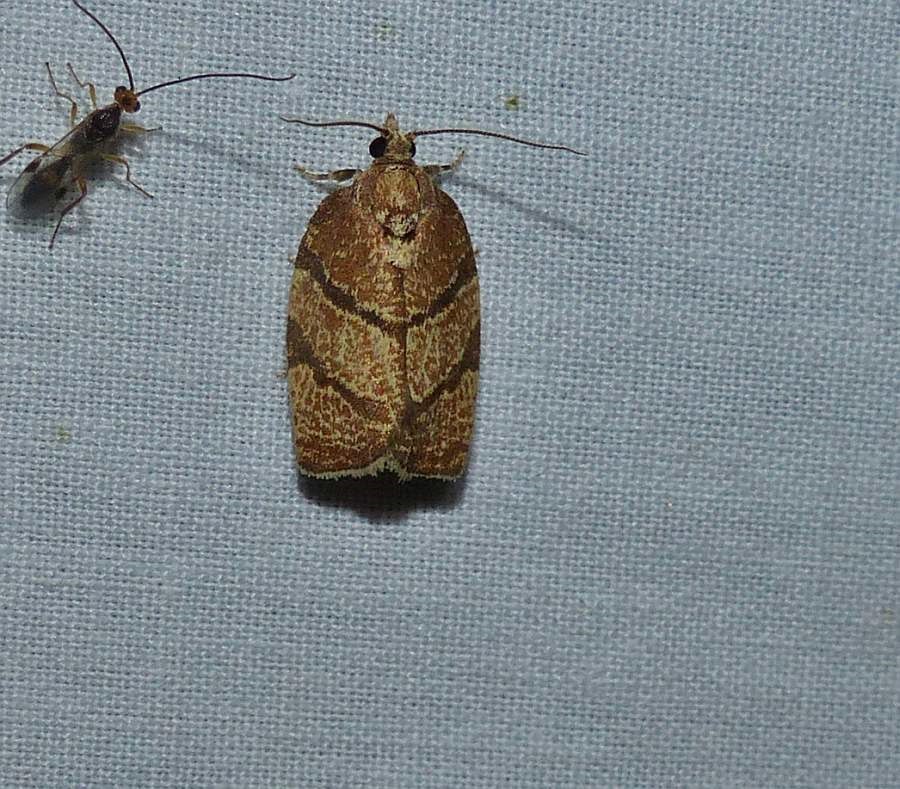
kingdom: Animalia
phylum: Arthropoda
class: Insecta
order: Lepidoptera
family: Tortricidae
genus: Argyrotaenia
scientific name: Argyrotaenia juglandana
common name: Hickory leafroller moth
